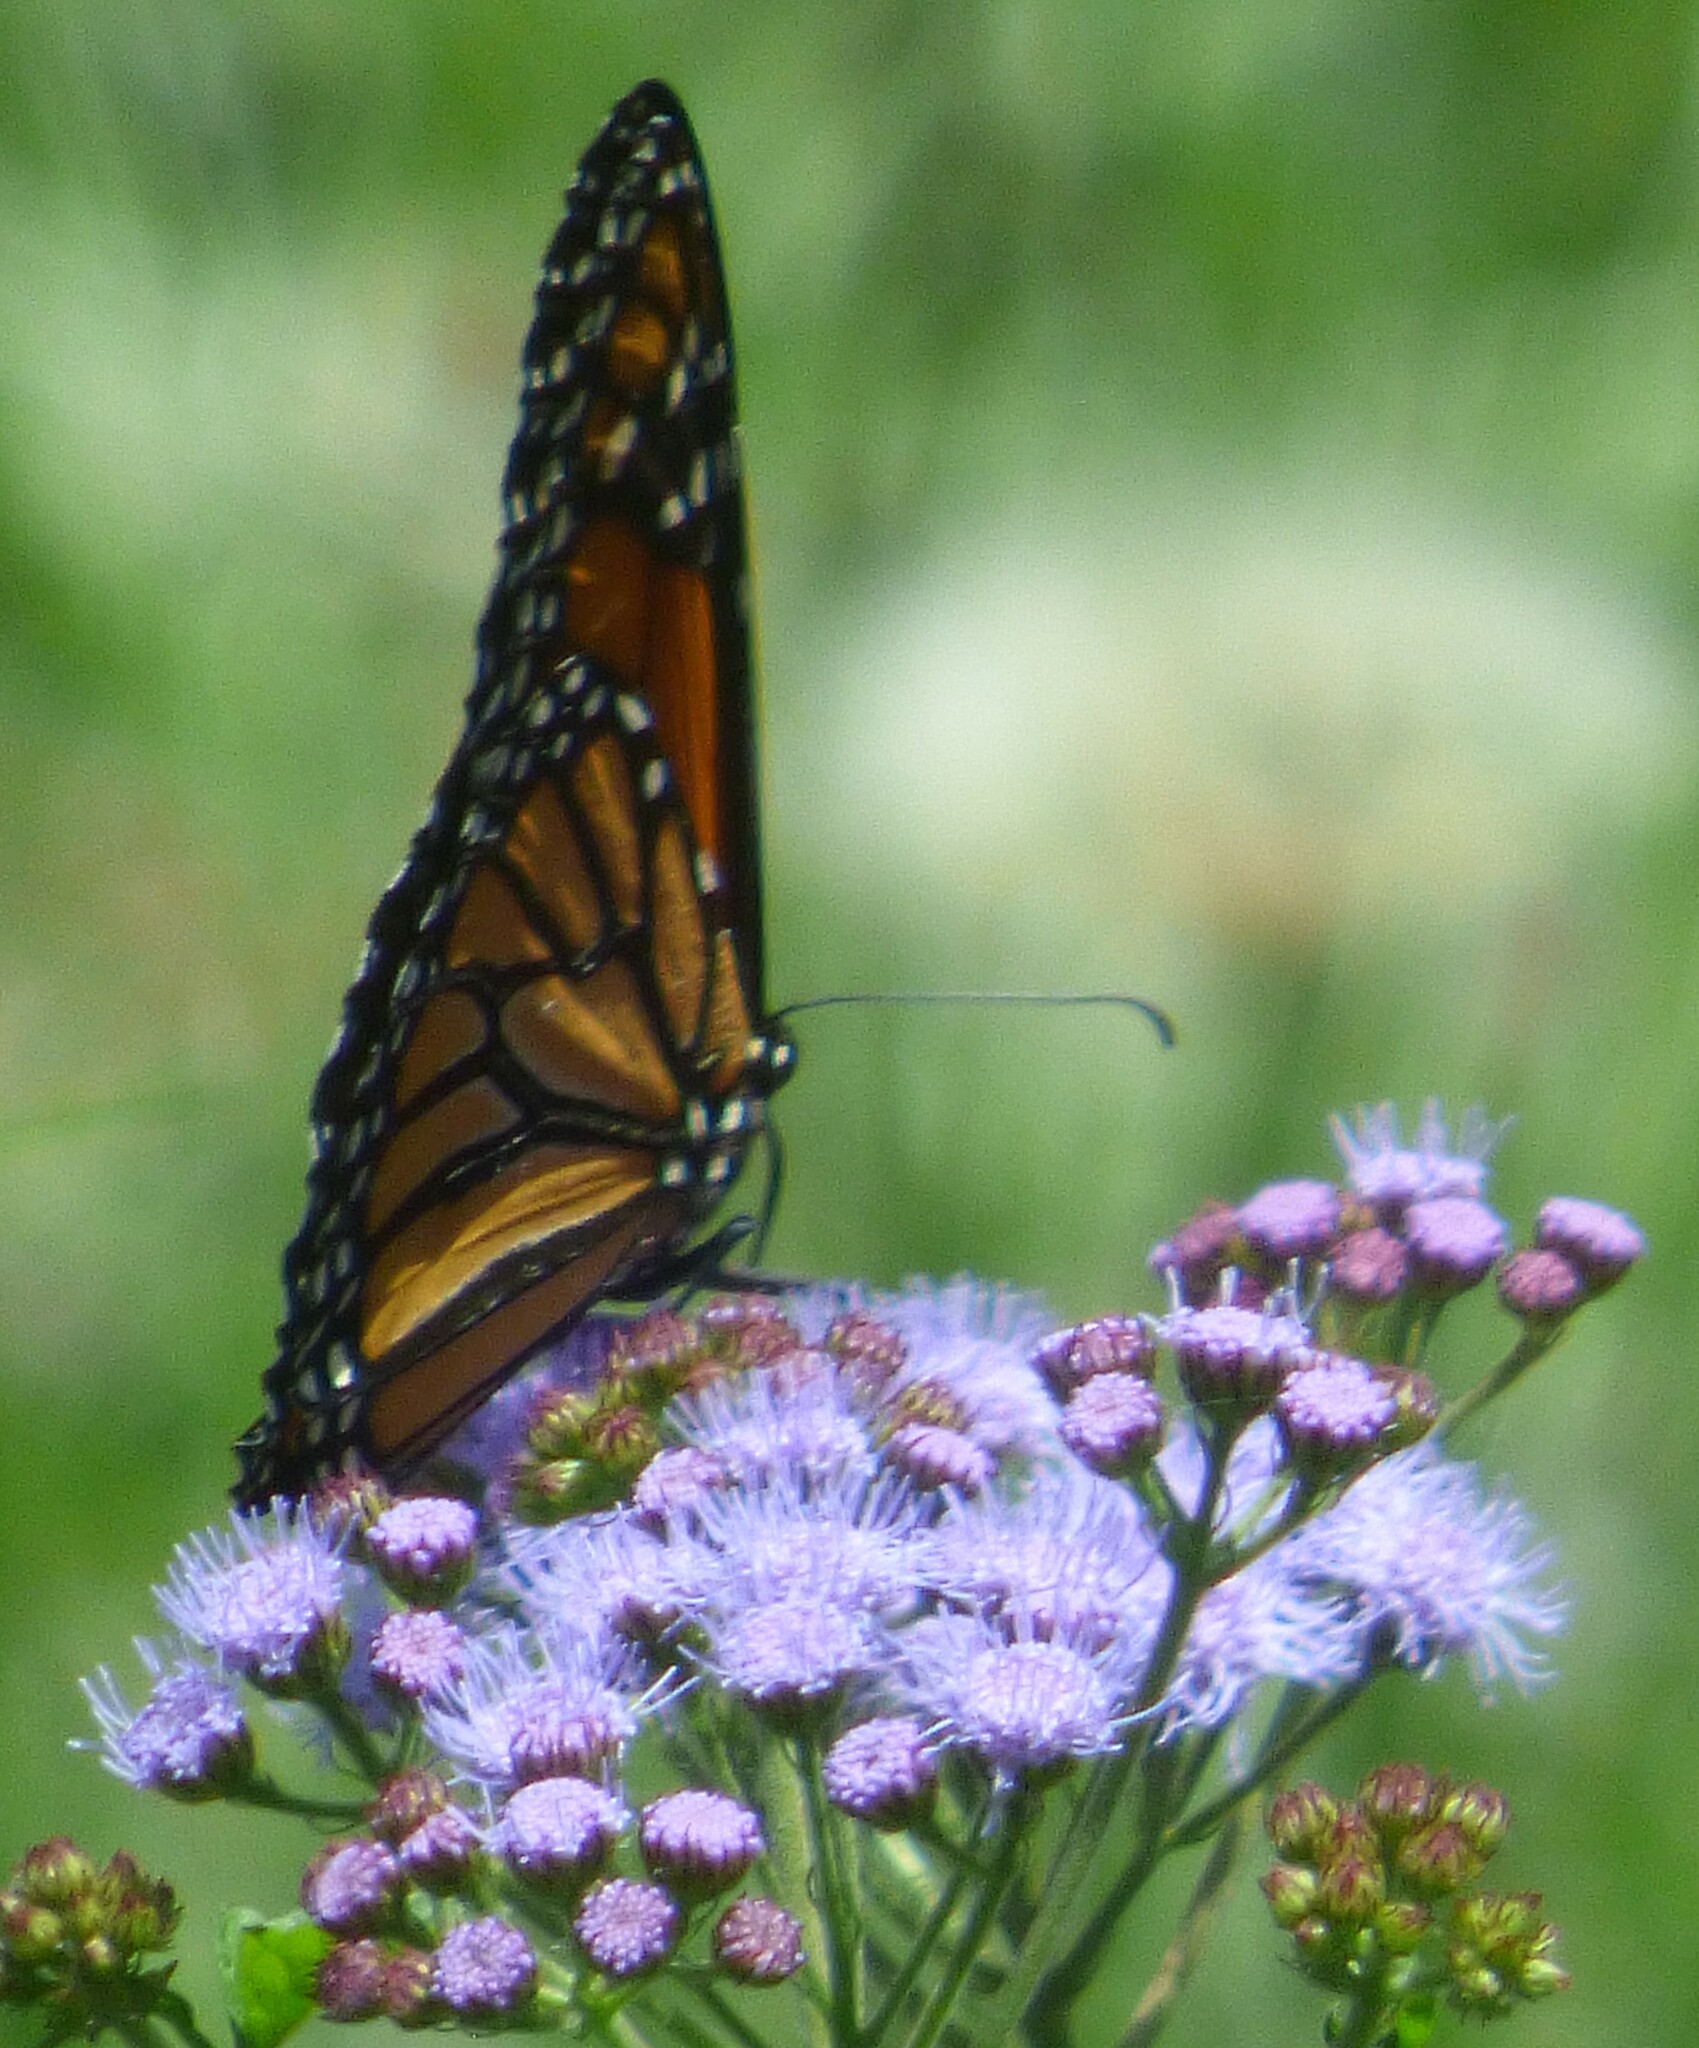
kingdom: Animalia
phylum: Arthropoda
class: Insecta
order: Lepidoptera
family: Nymphalidae
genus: Danaus
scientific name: Danaus plexippus
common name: Monarch
